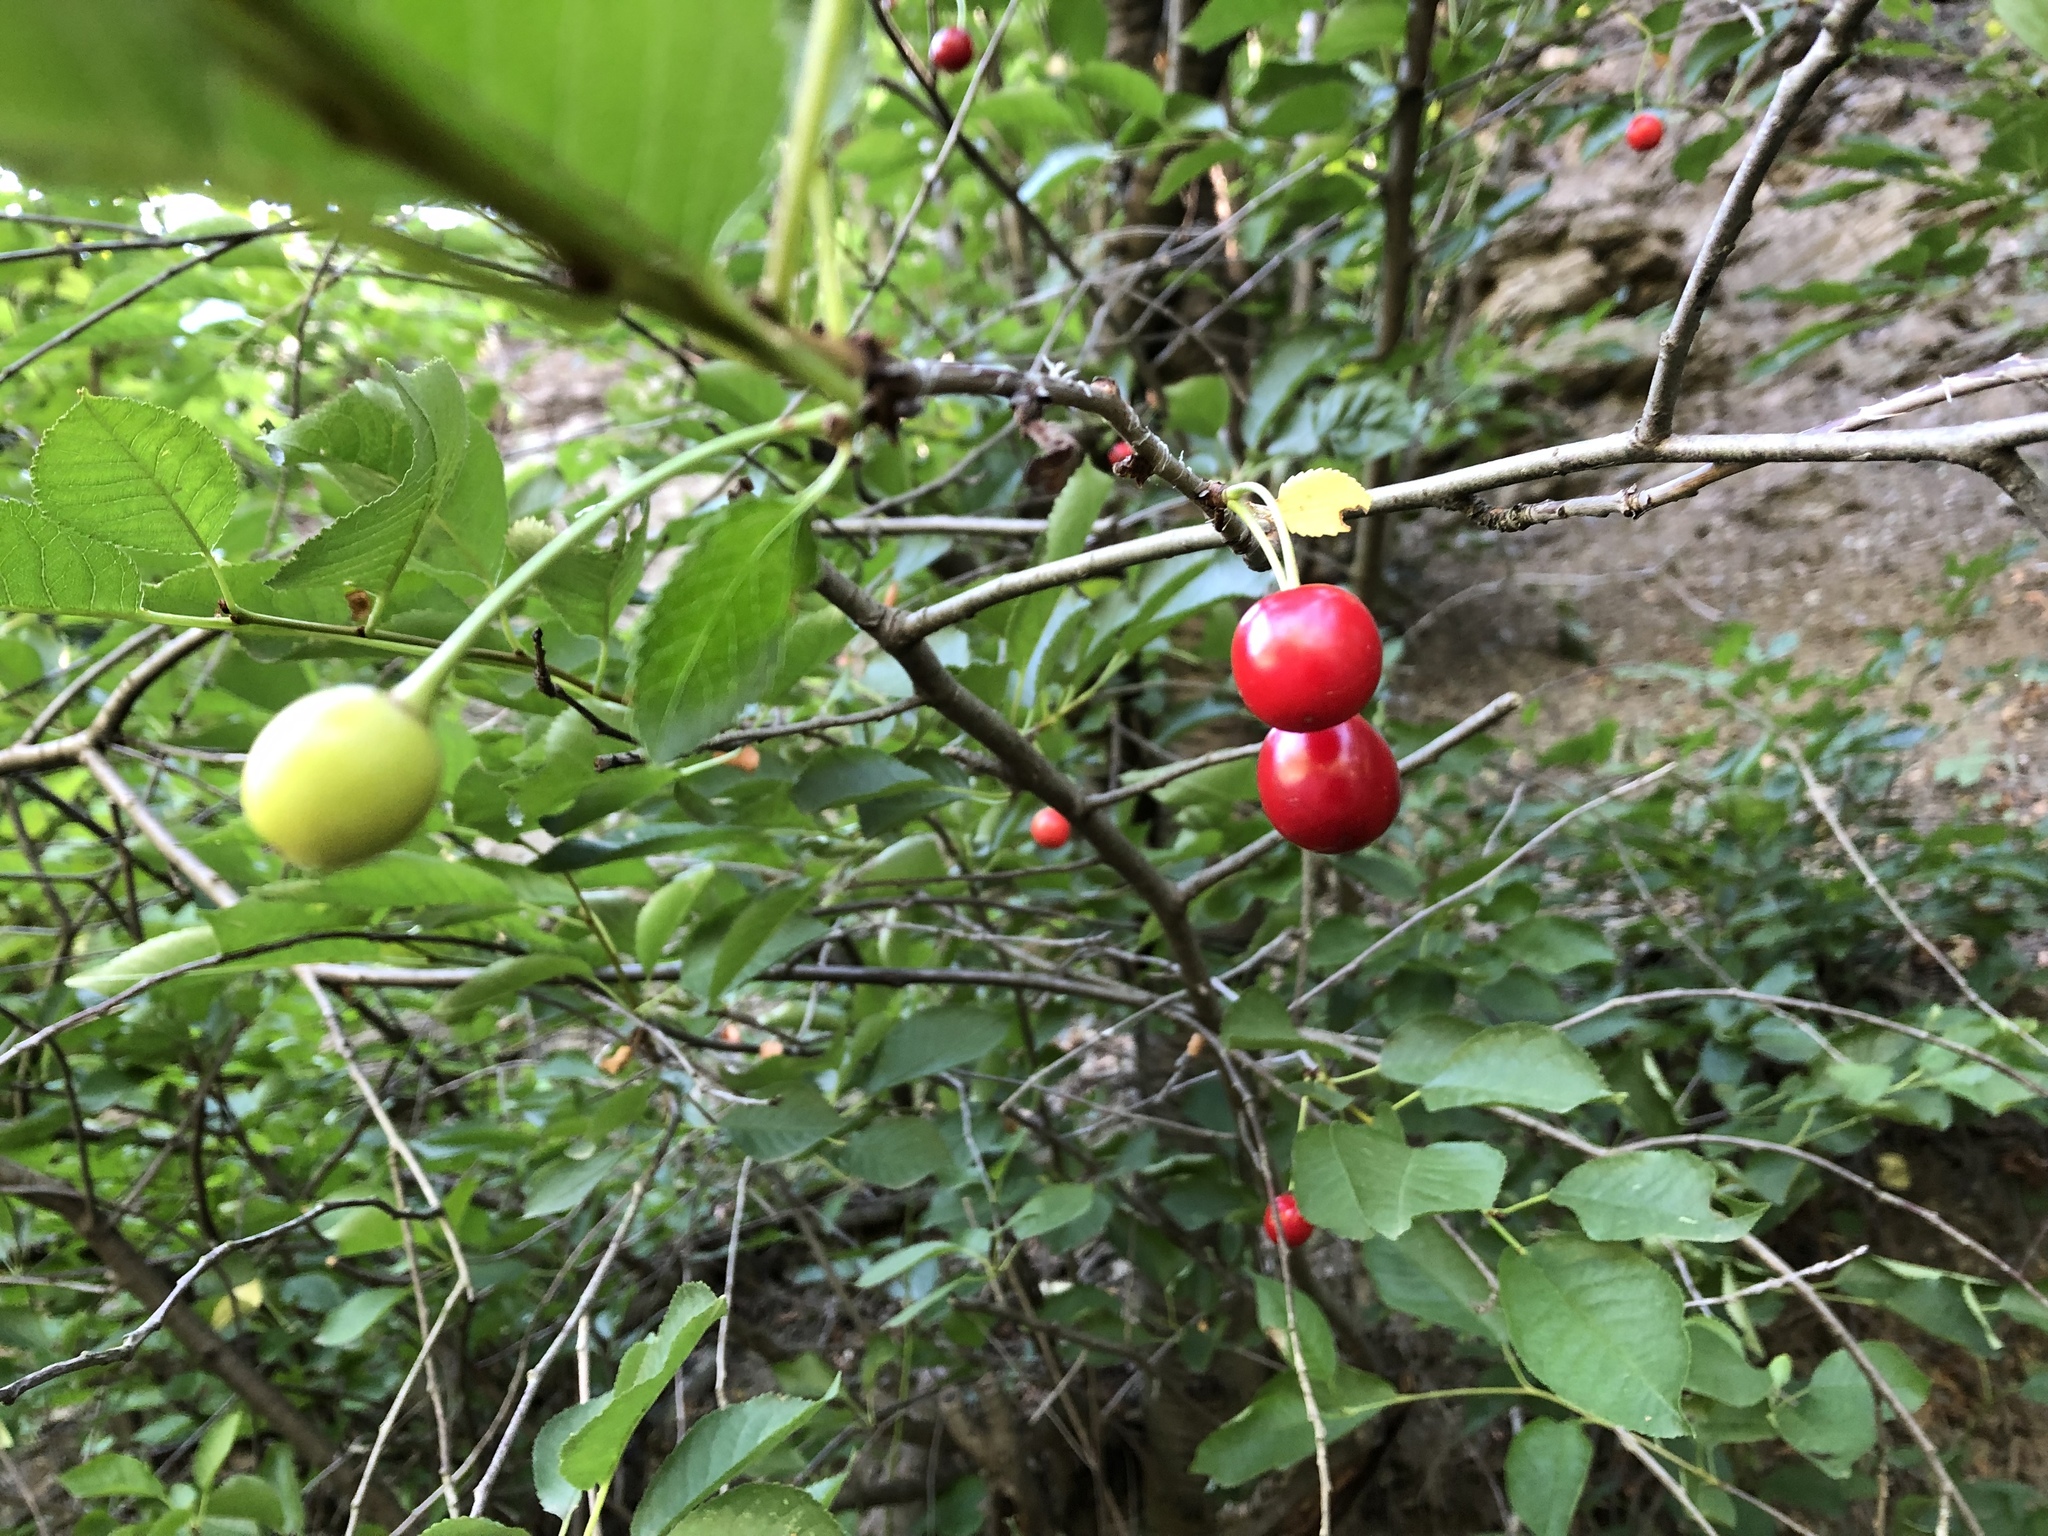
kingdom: Plantae
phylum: Tracheophyta
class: Magnoliopsida
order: Rosales
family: Rosaceae
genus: Prunus
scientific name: Prunus avium
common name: Sweet cherry
